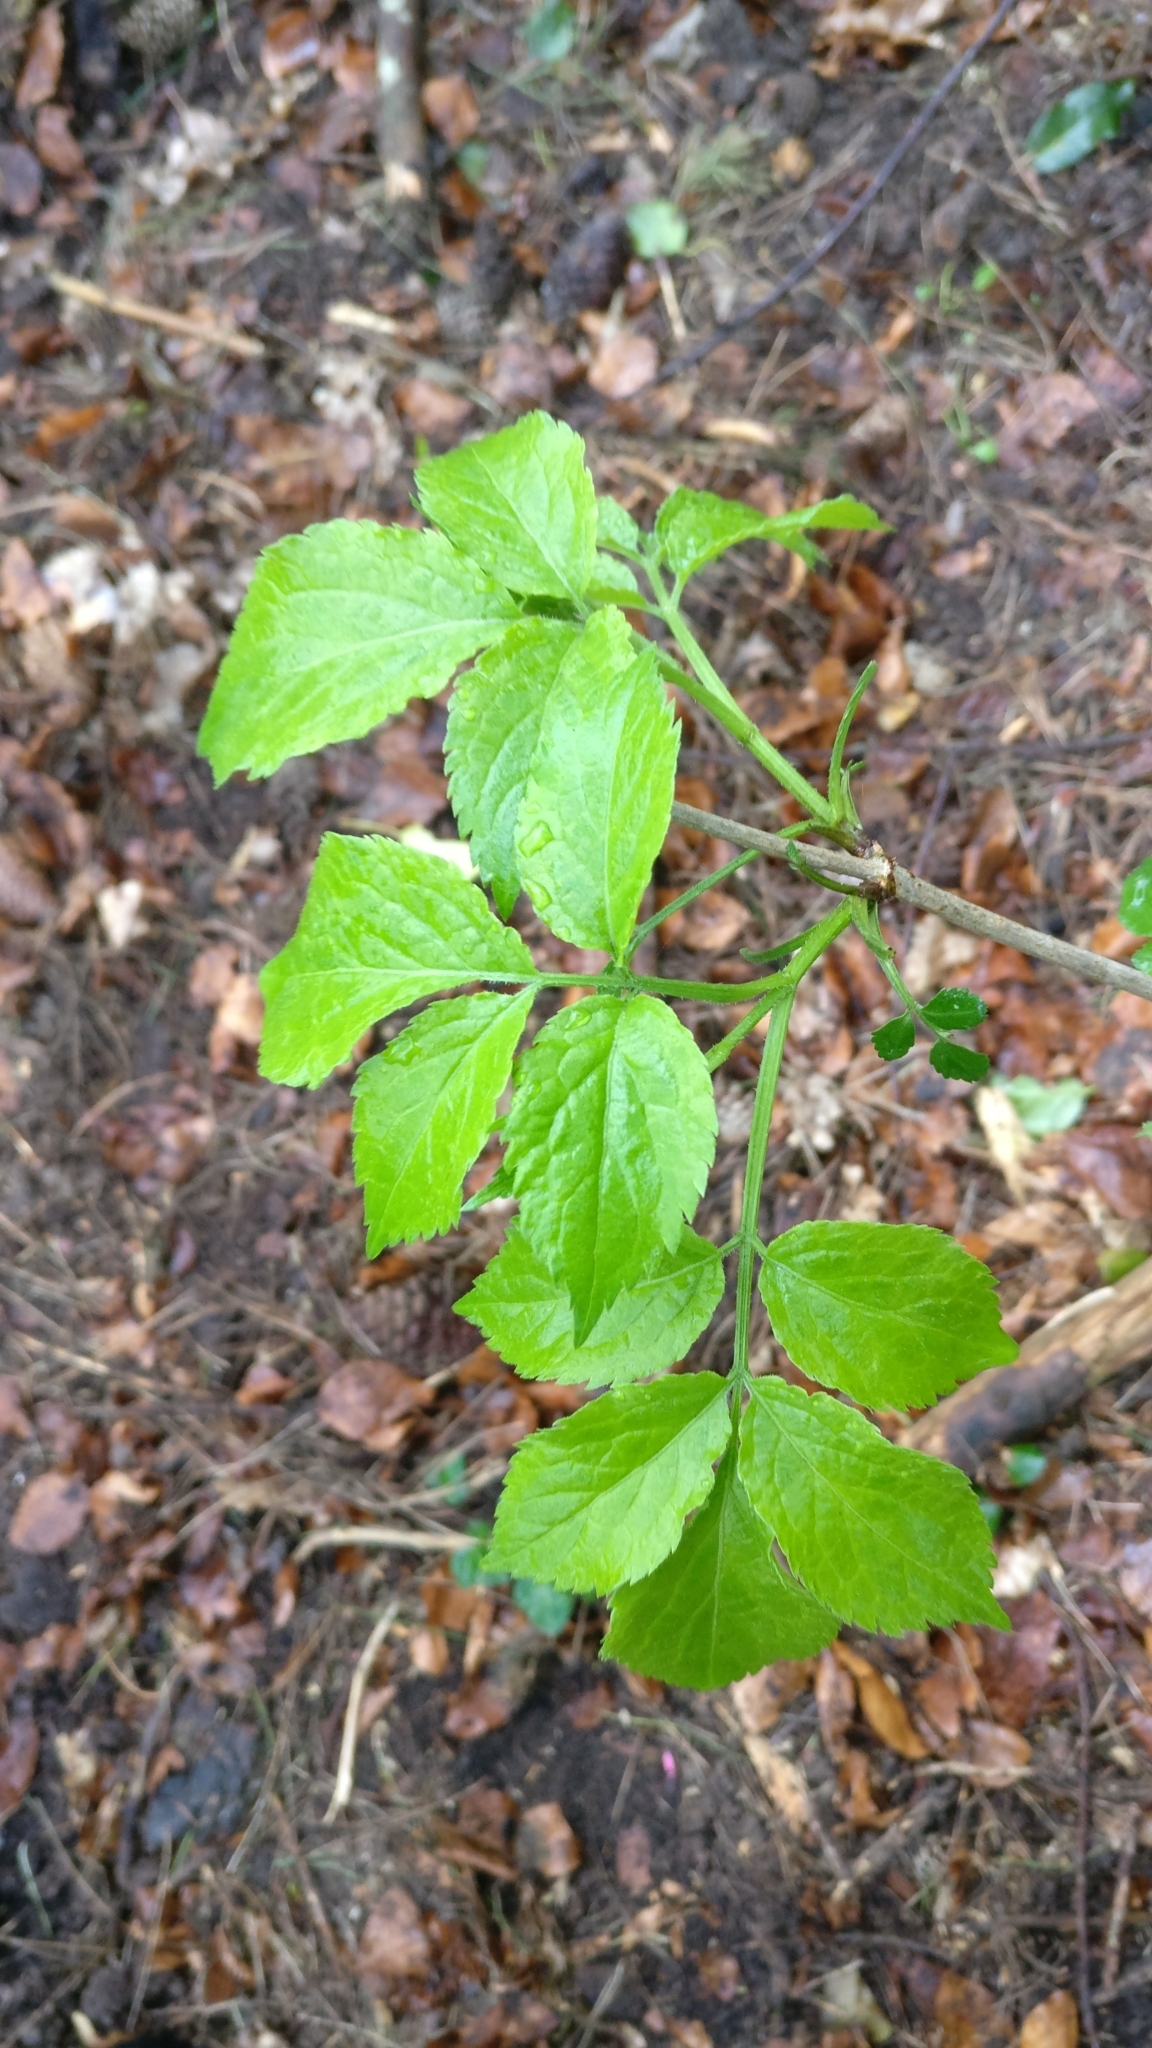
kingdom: Plantae
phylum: Tracheophyta
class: Magnoliopsida
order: Dipsacales
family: Viburnaceae
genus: Sambucus
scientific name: Sambucus nigra
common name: Elder
